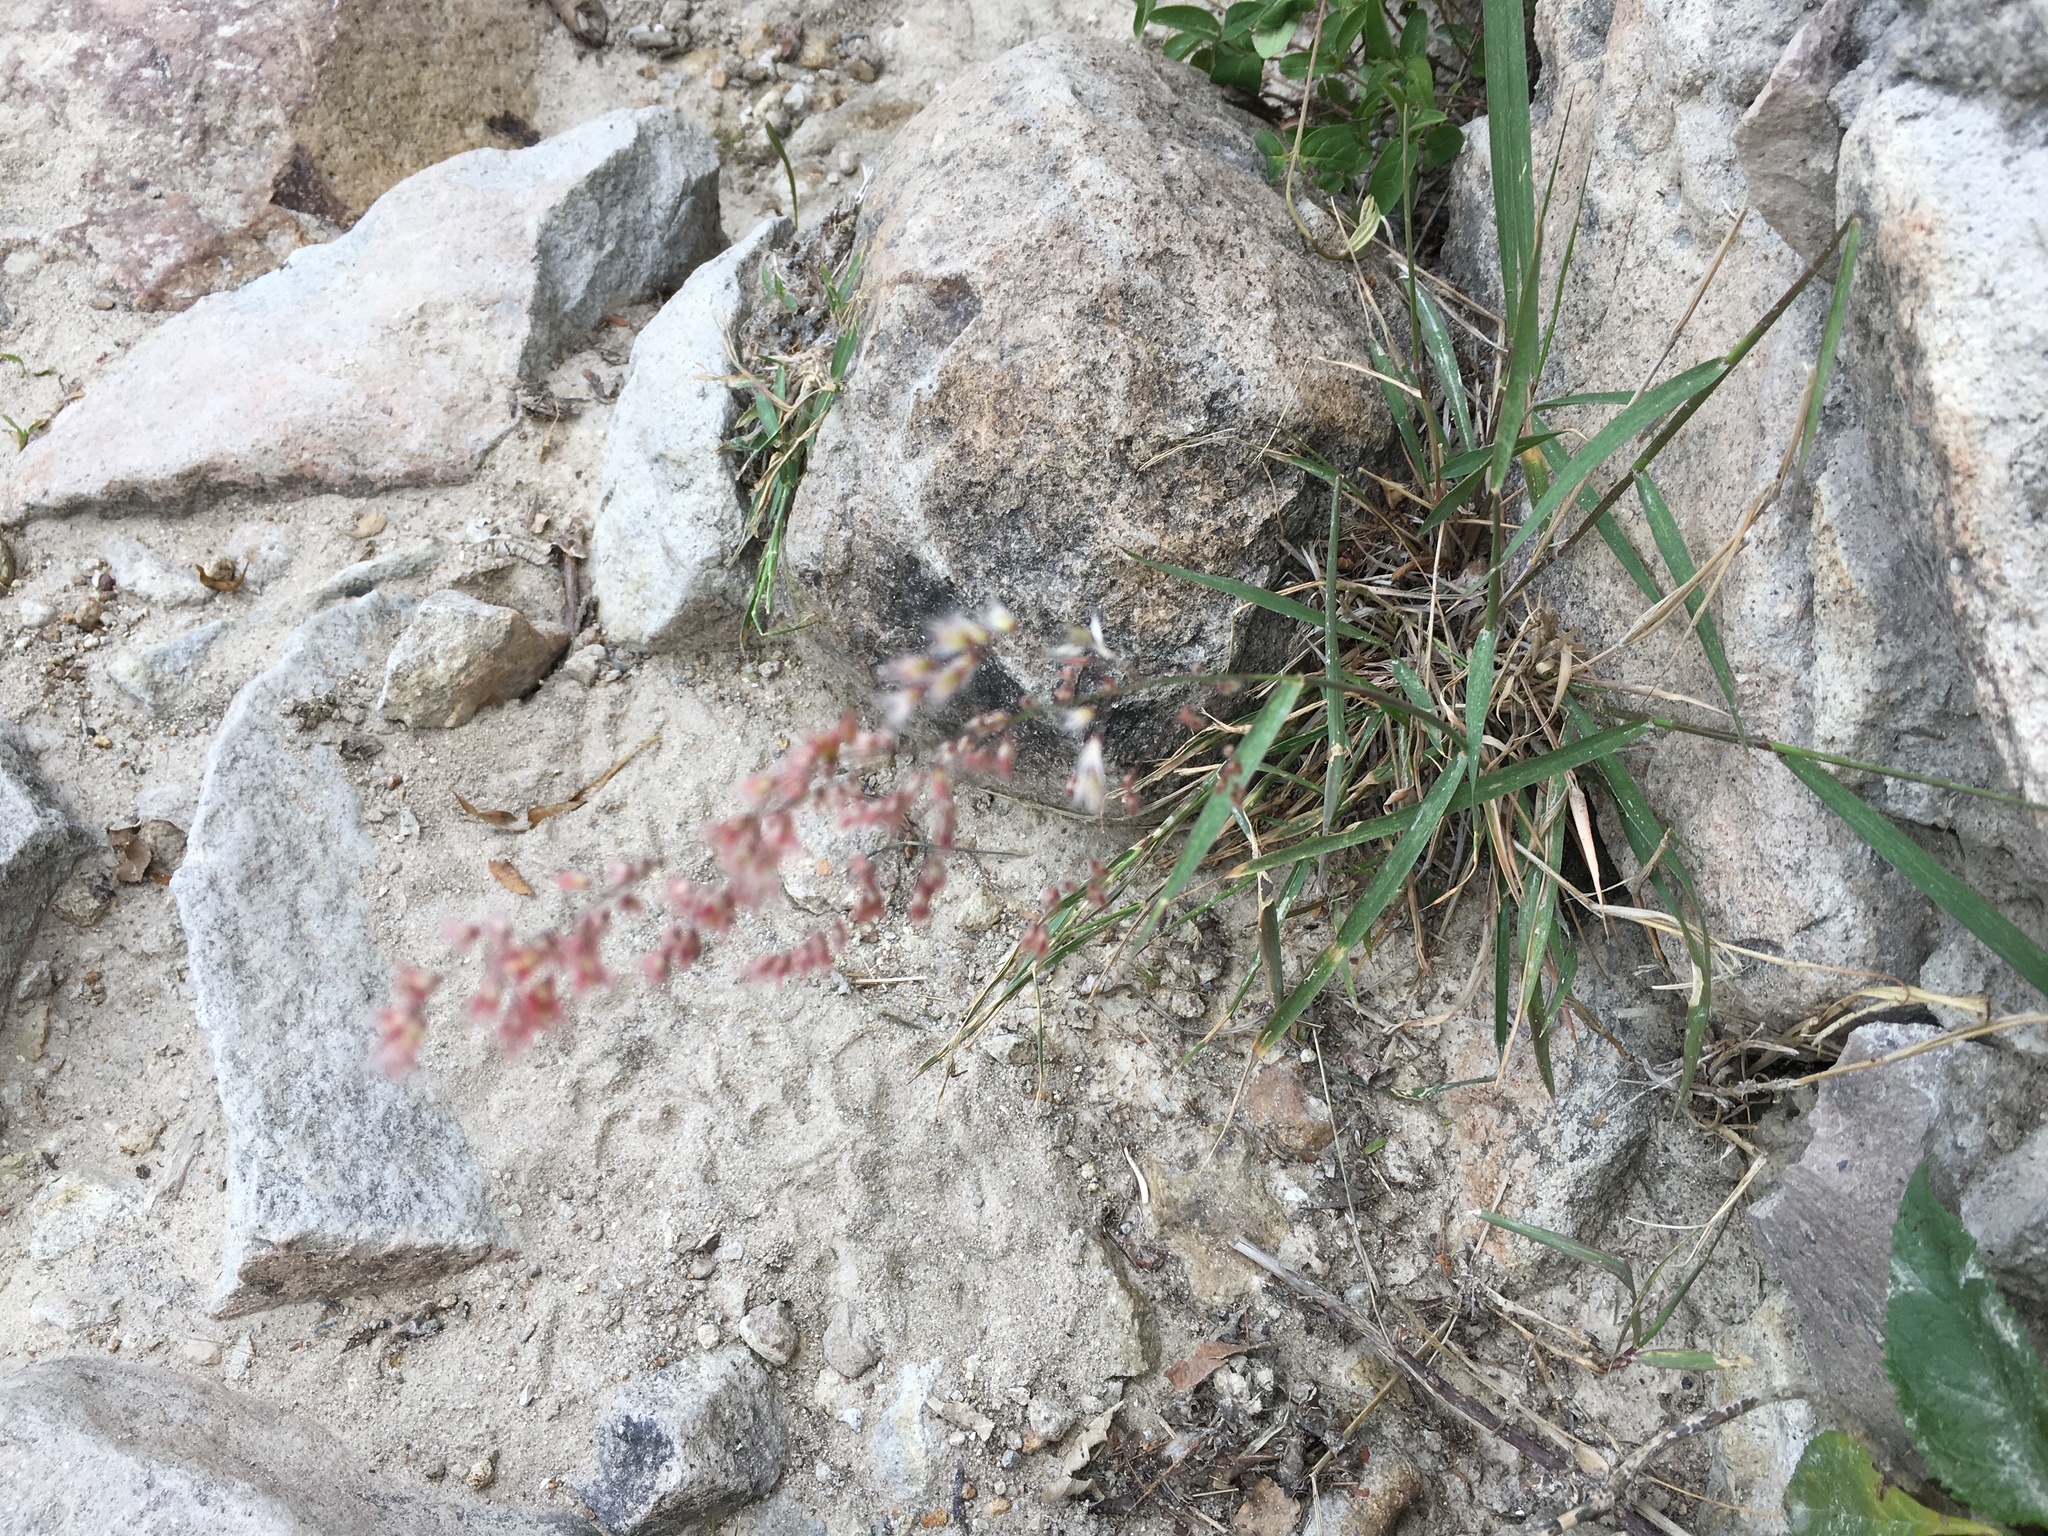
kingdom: Plantae
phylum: Tracheophyta
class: Liliopsida
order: Poales
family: Poaceae
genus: Melinis
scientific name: Melinis repens
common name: Rose natal grass
